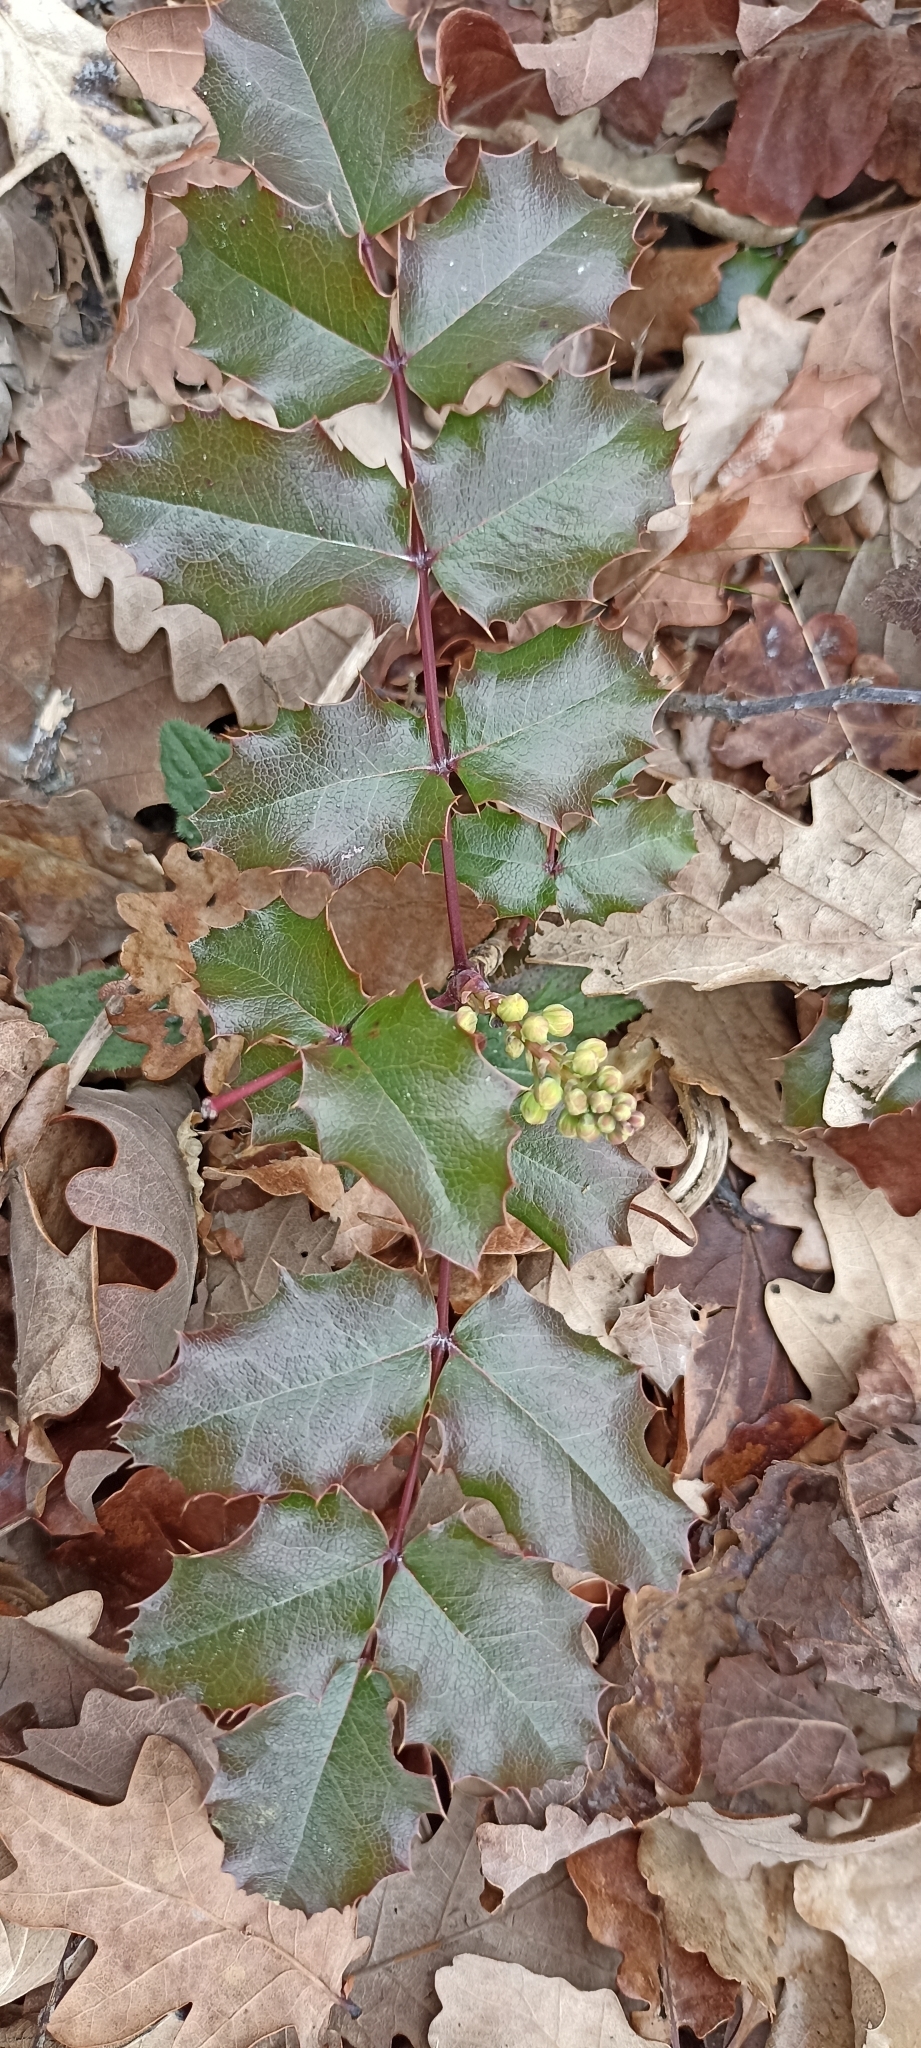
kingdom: Plantae
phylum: Tracheophyta
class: Magnoliopsida
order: Ranunculales
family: Berberidaceae
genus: Mahonia
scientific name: Mahonia aquifolium
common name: Oregon-grape
